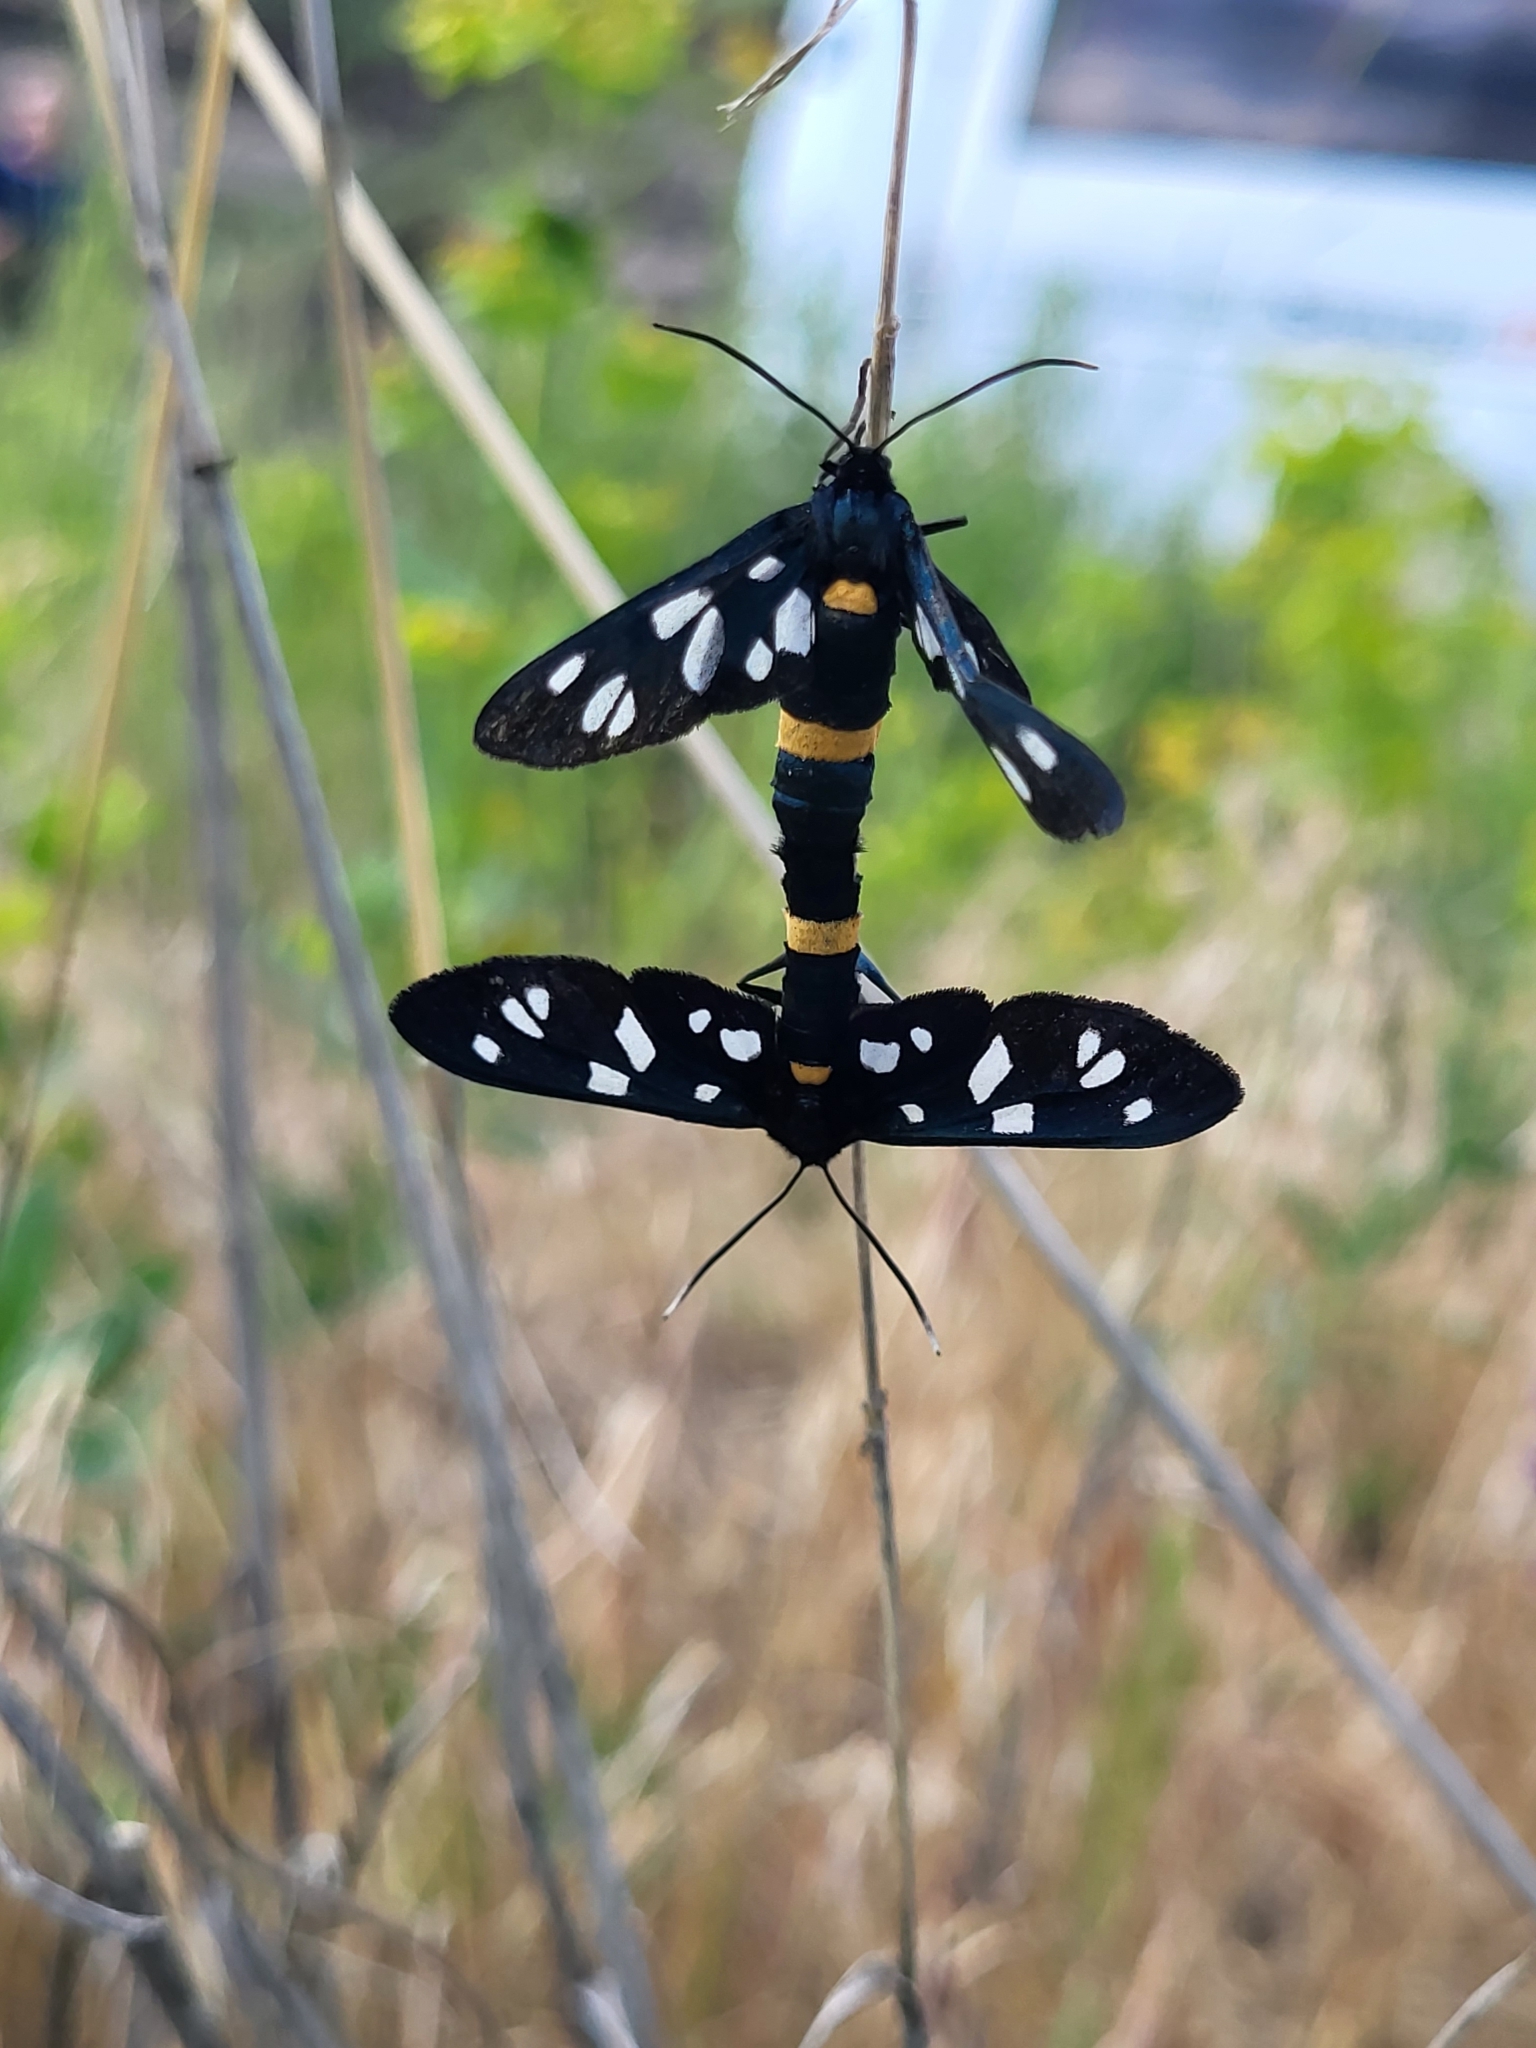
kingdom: Animalia
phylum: Arthropoda
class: Insecta
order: Lepidoptera
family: Erebidae
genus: Amata
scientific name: Amata nigricornis
